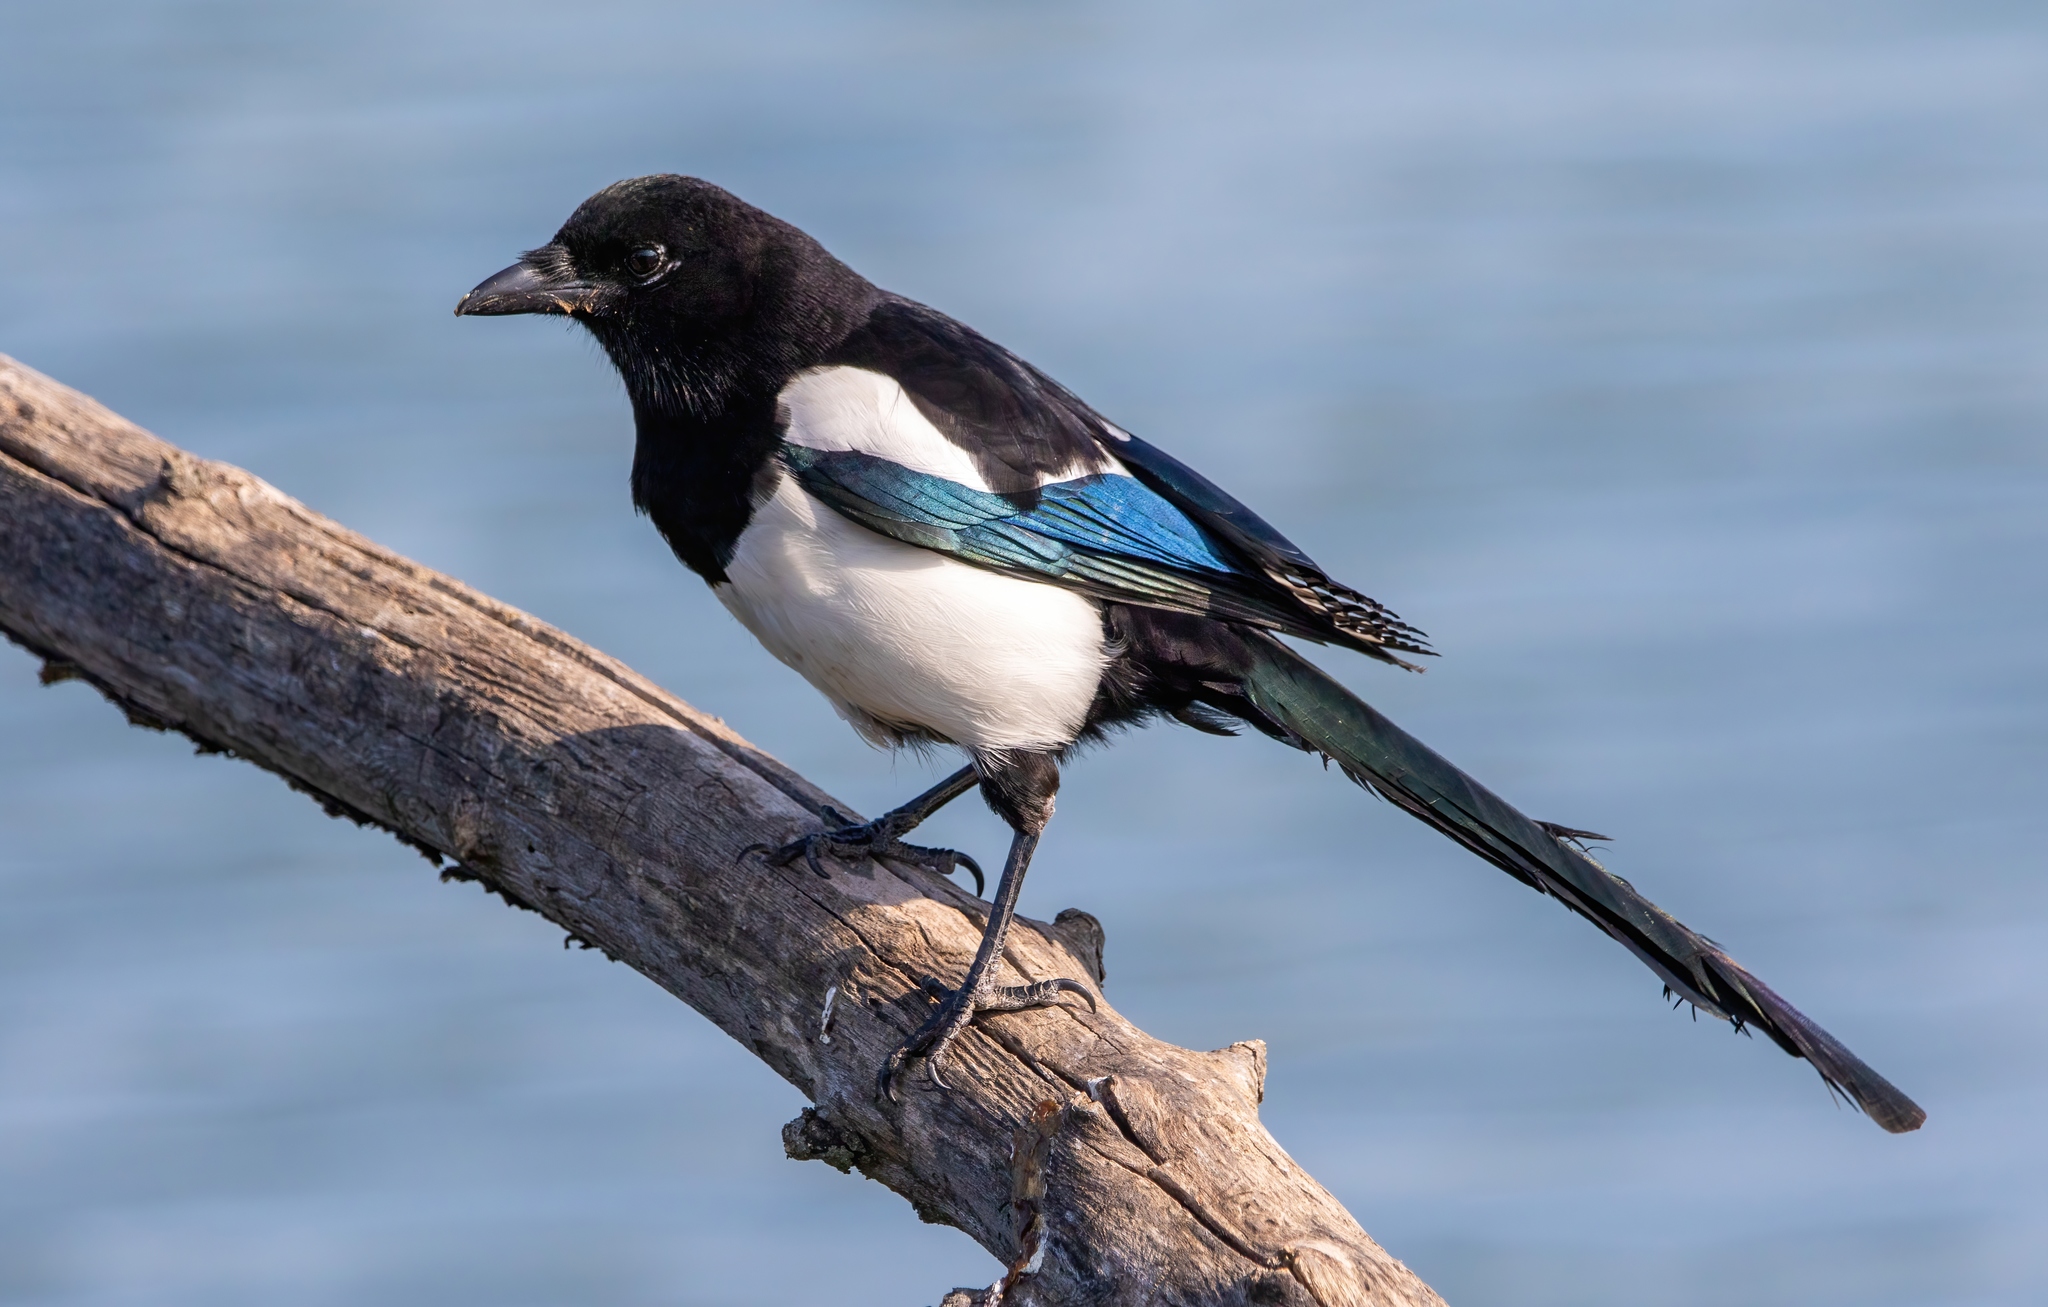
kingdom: Animalia
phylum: Chordata
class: Aves
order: Passeriformes
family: Corvidae
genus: Pica
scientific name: Pica pica
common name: Eurasian magpie
